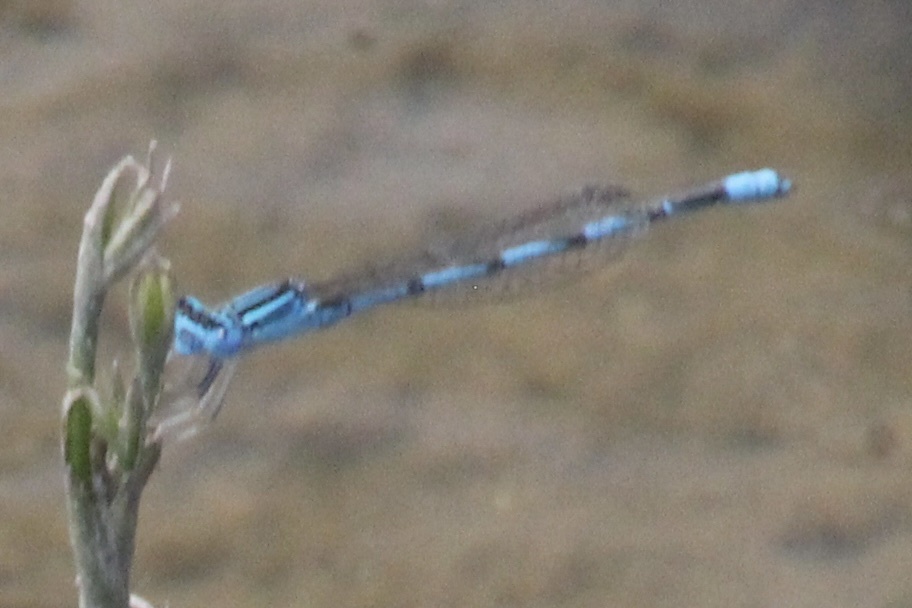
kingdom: Animalia
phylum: Arthropoda
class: Insecta
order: Odonata
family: Coenagrionidae
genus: Enallagma
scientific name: Enallagma basidens
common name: Double-striped bluet
